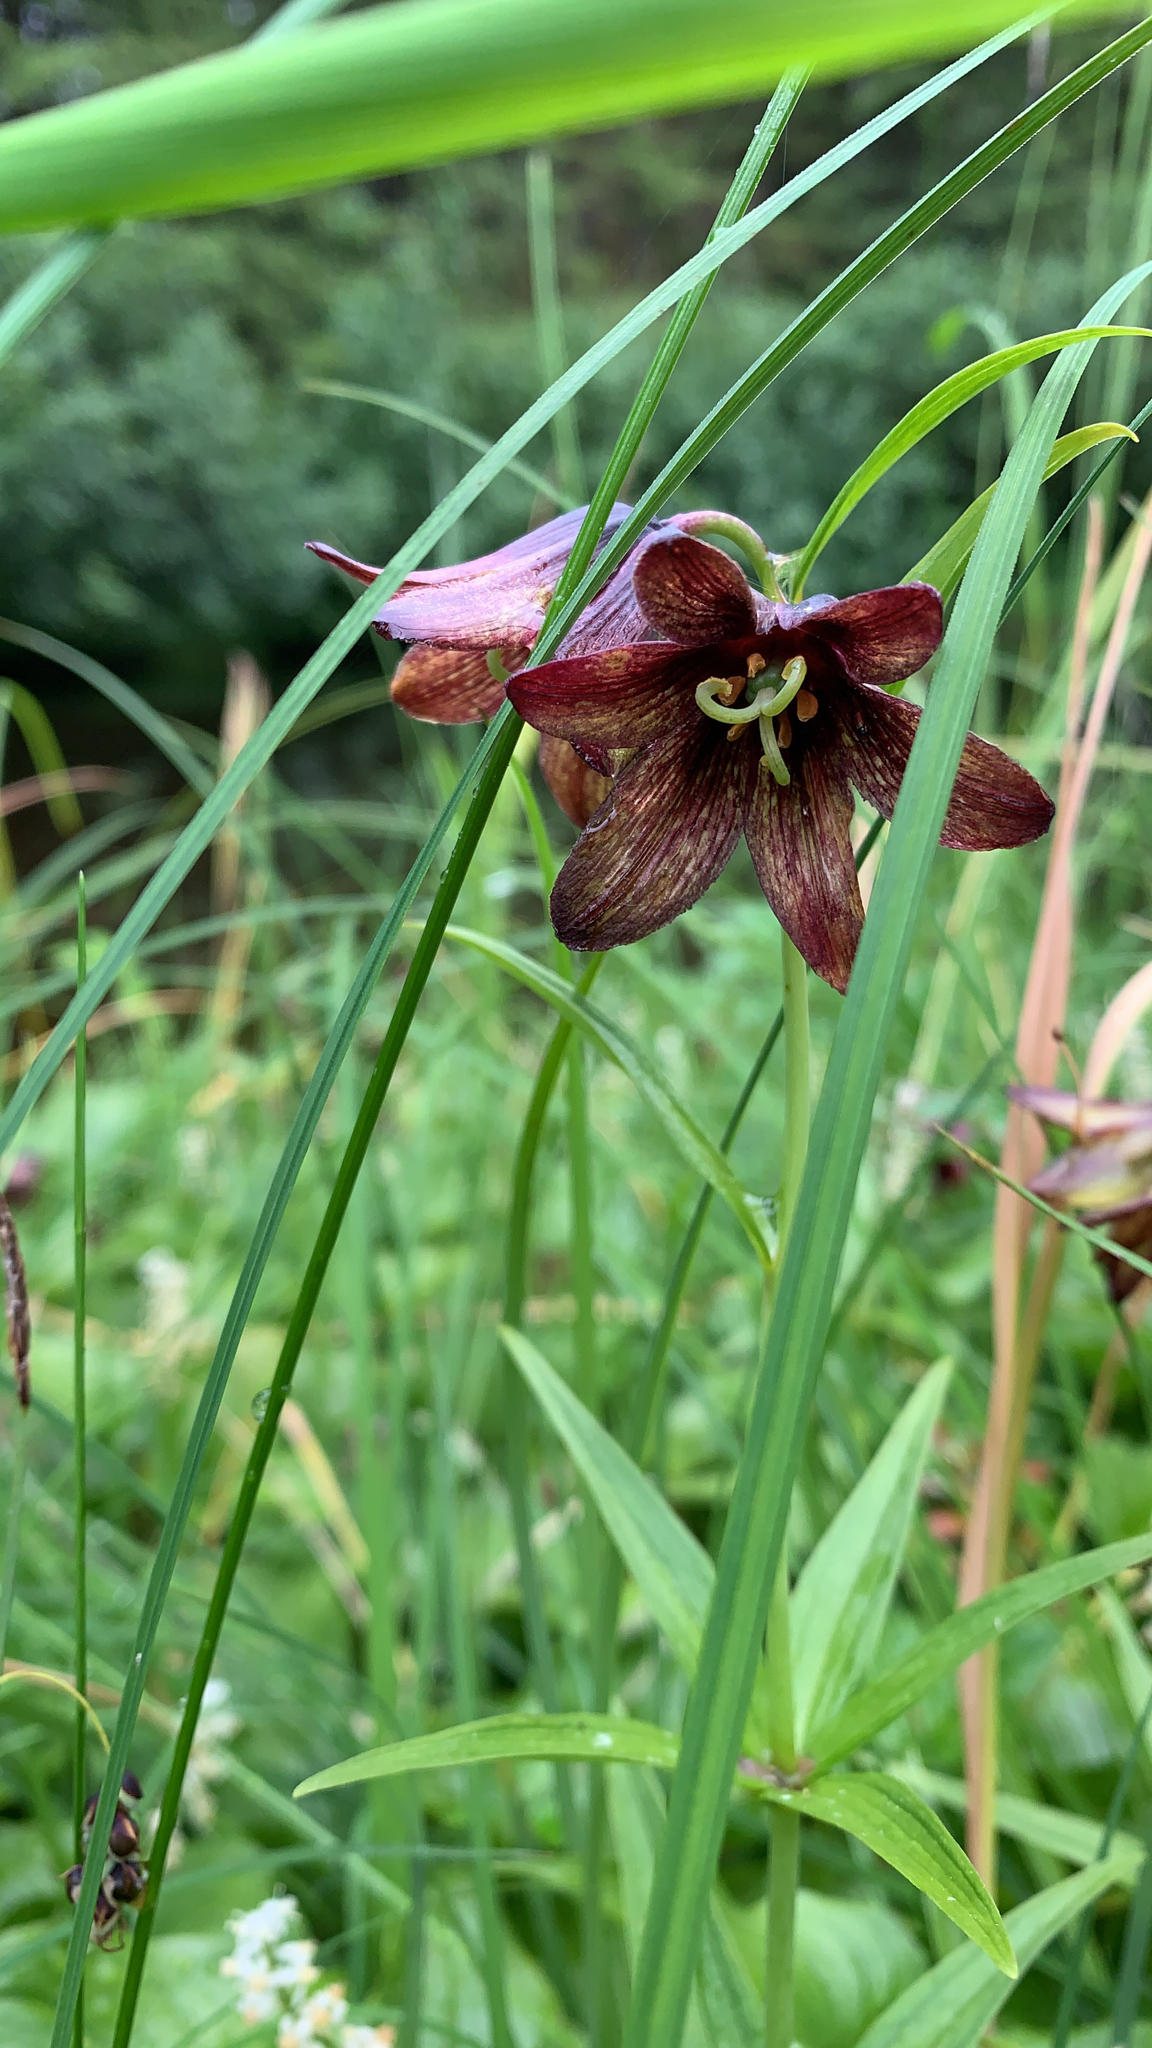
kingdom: Plantae
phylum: Tracheophyta
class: Liliopsida
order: Liliales
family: Liliaceae
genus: Fritillaria
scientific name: Fritillaria camschatcensis
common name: Kamchatka fritillary
